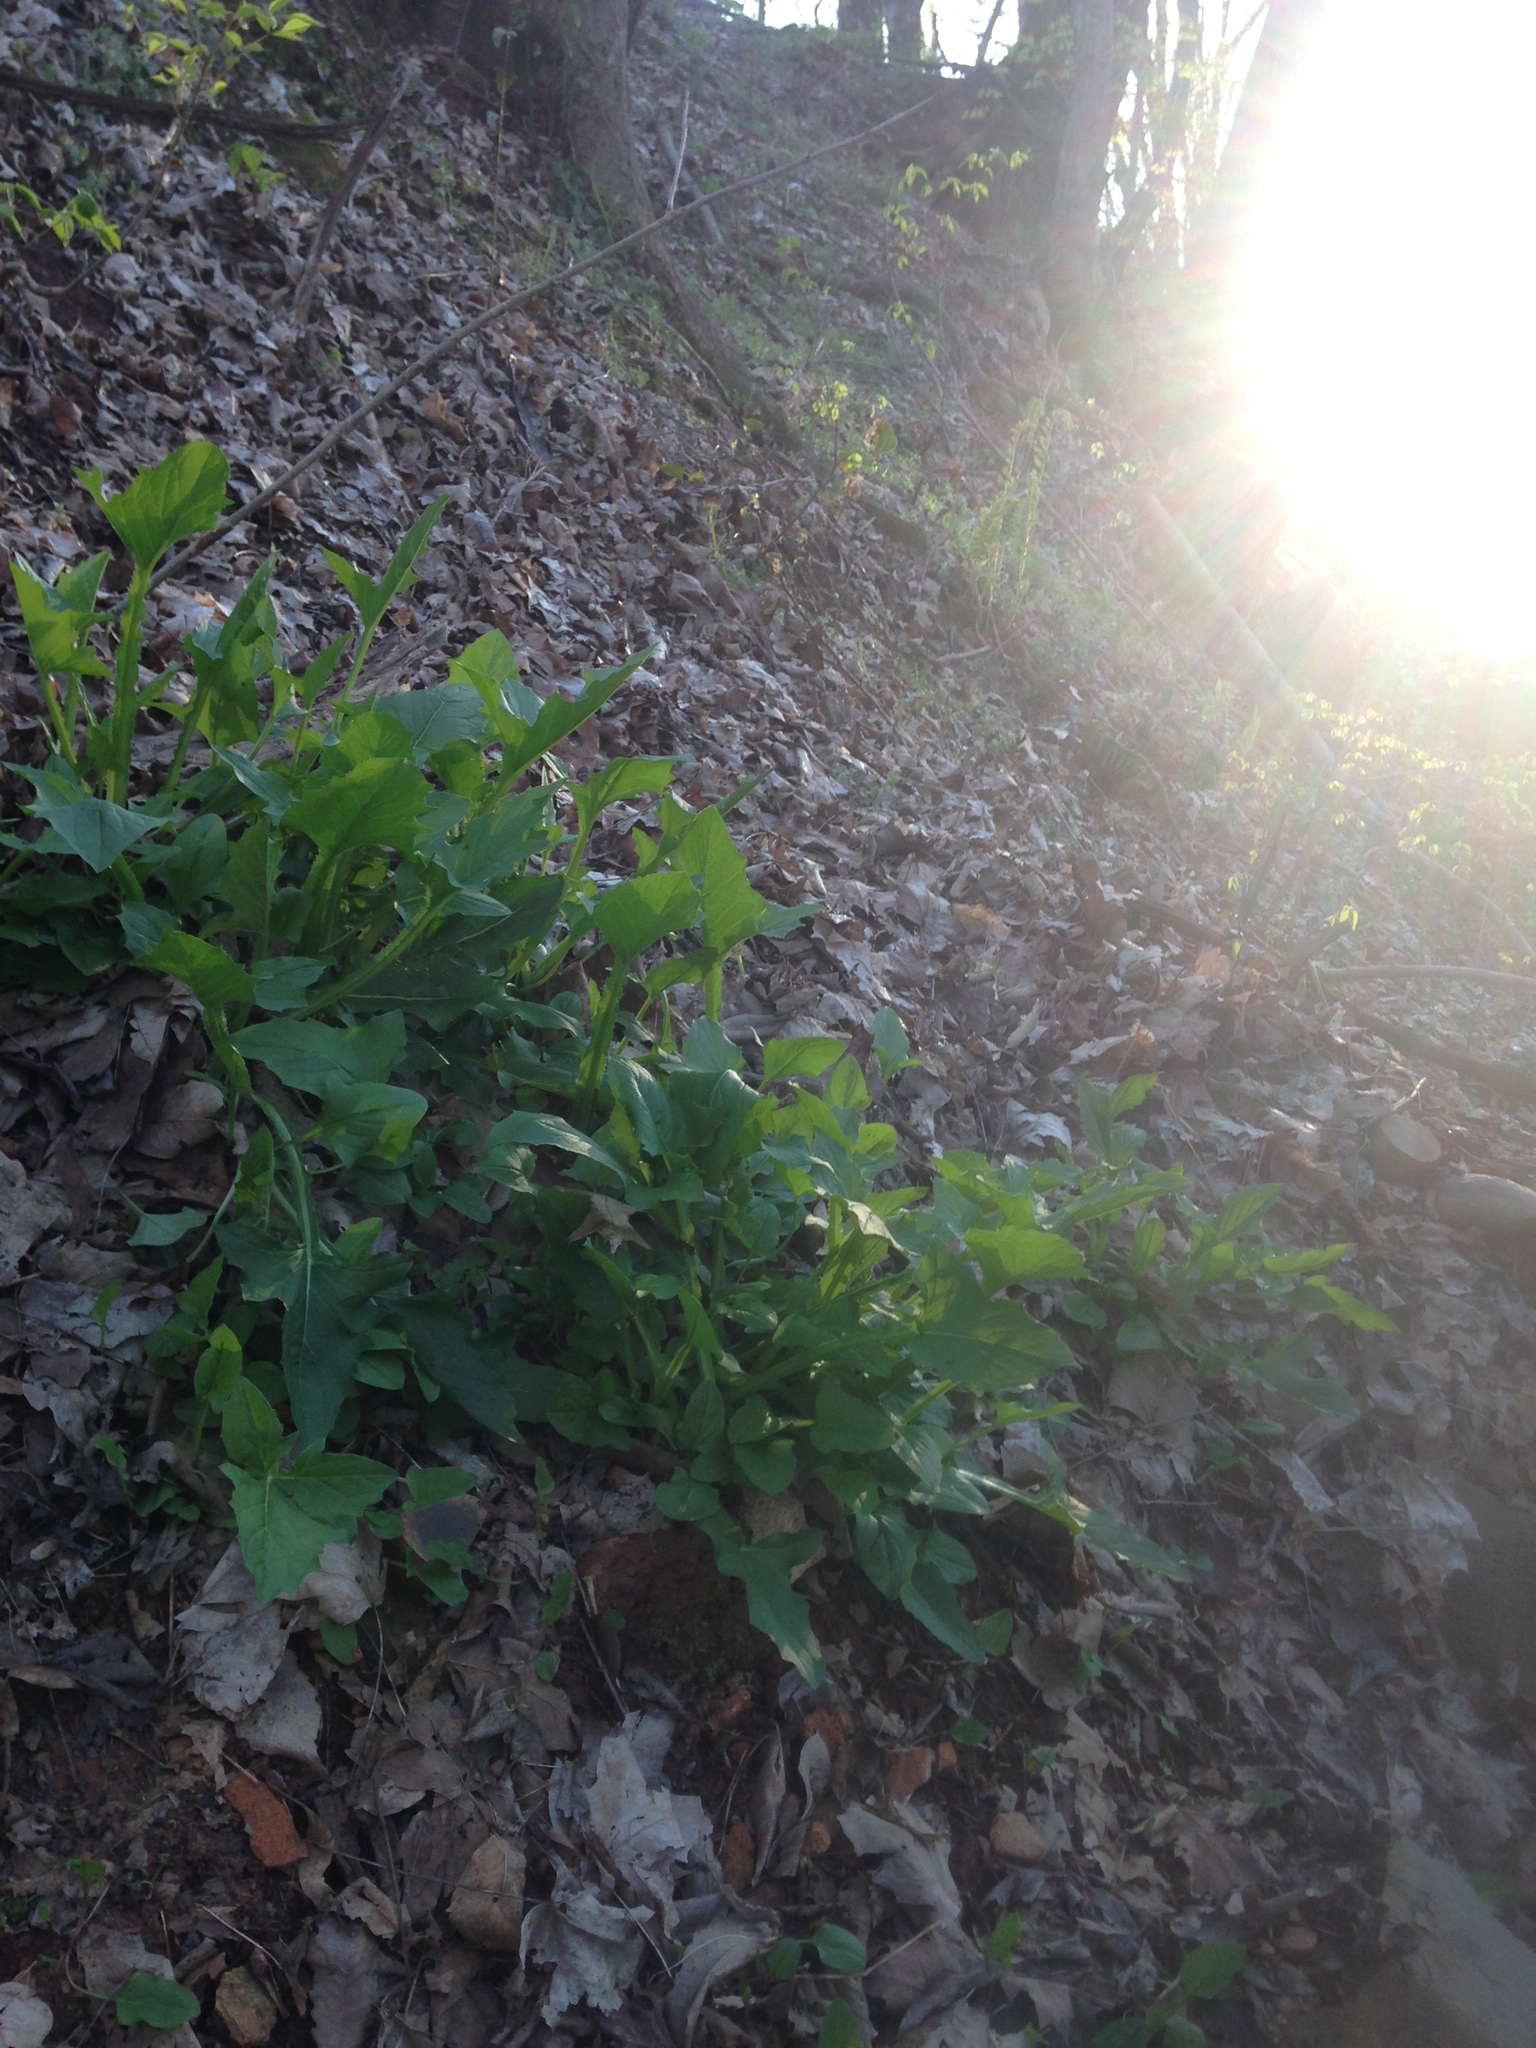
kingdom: Plantae
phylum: Tracheophyta
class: Magnoliopsida
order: Asterales
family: Asteraceae
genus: Nabalus
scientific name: Nabalus crepidineus
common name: Nodding rattlesnakeroot
